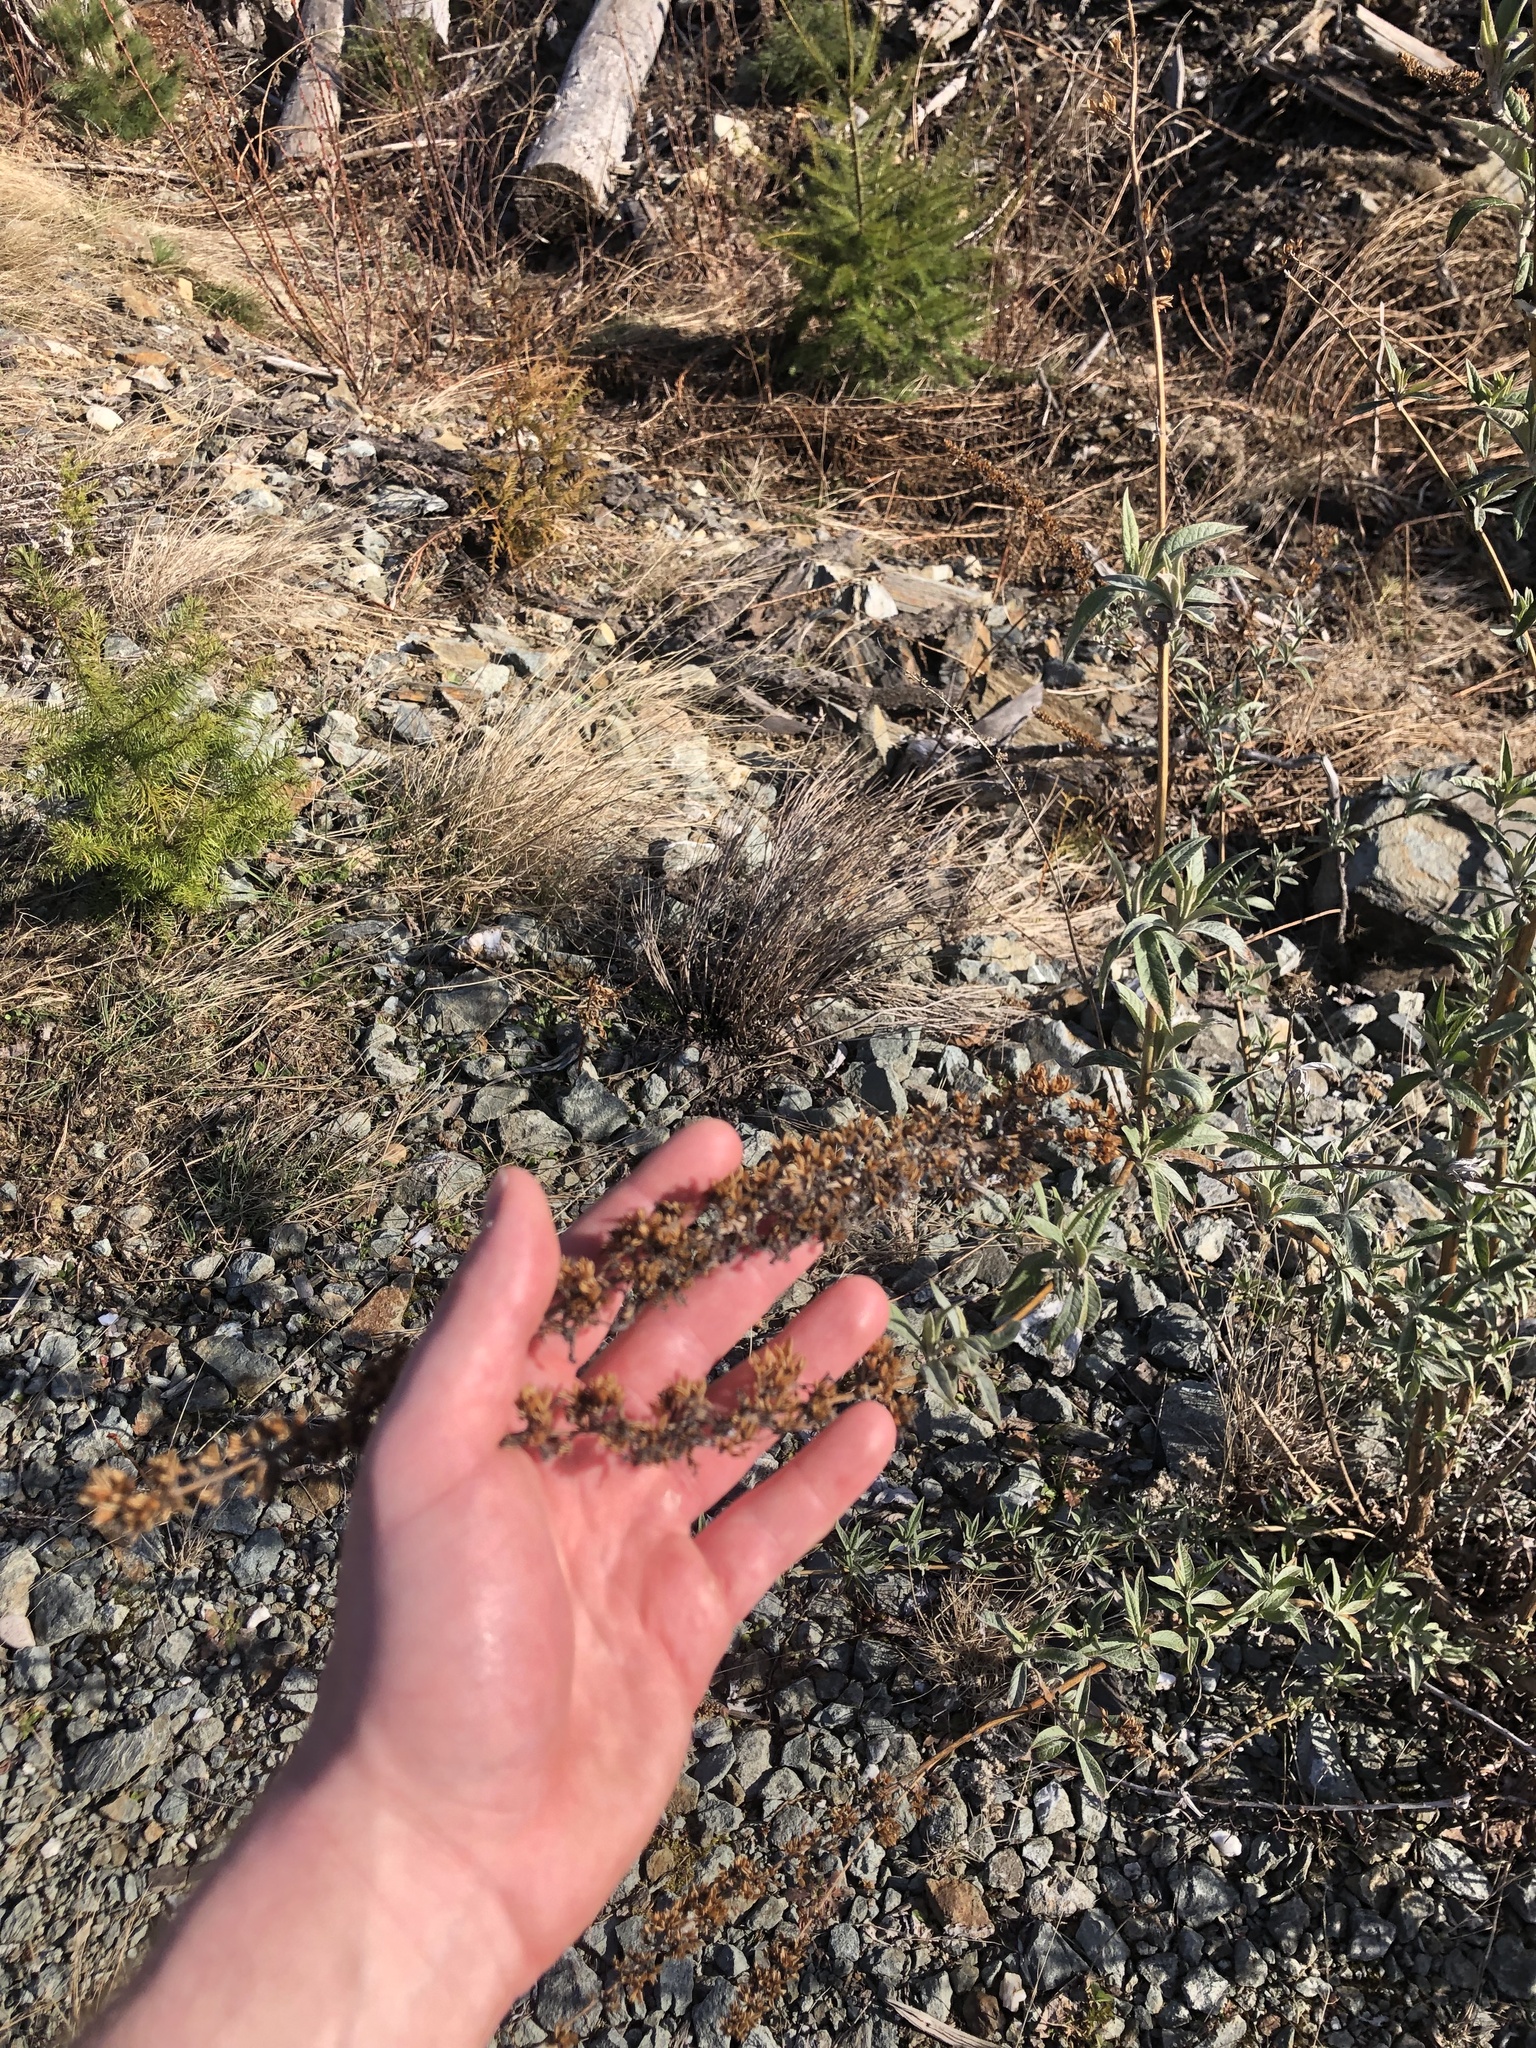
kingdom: Plantae
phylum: Tracheophyta
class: Magnoliopsida
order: Lamiales
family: Scrophulariaceae
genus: Buddleja
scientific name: Buddleja davidii
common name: Butterfly-bush
